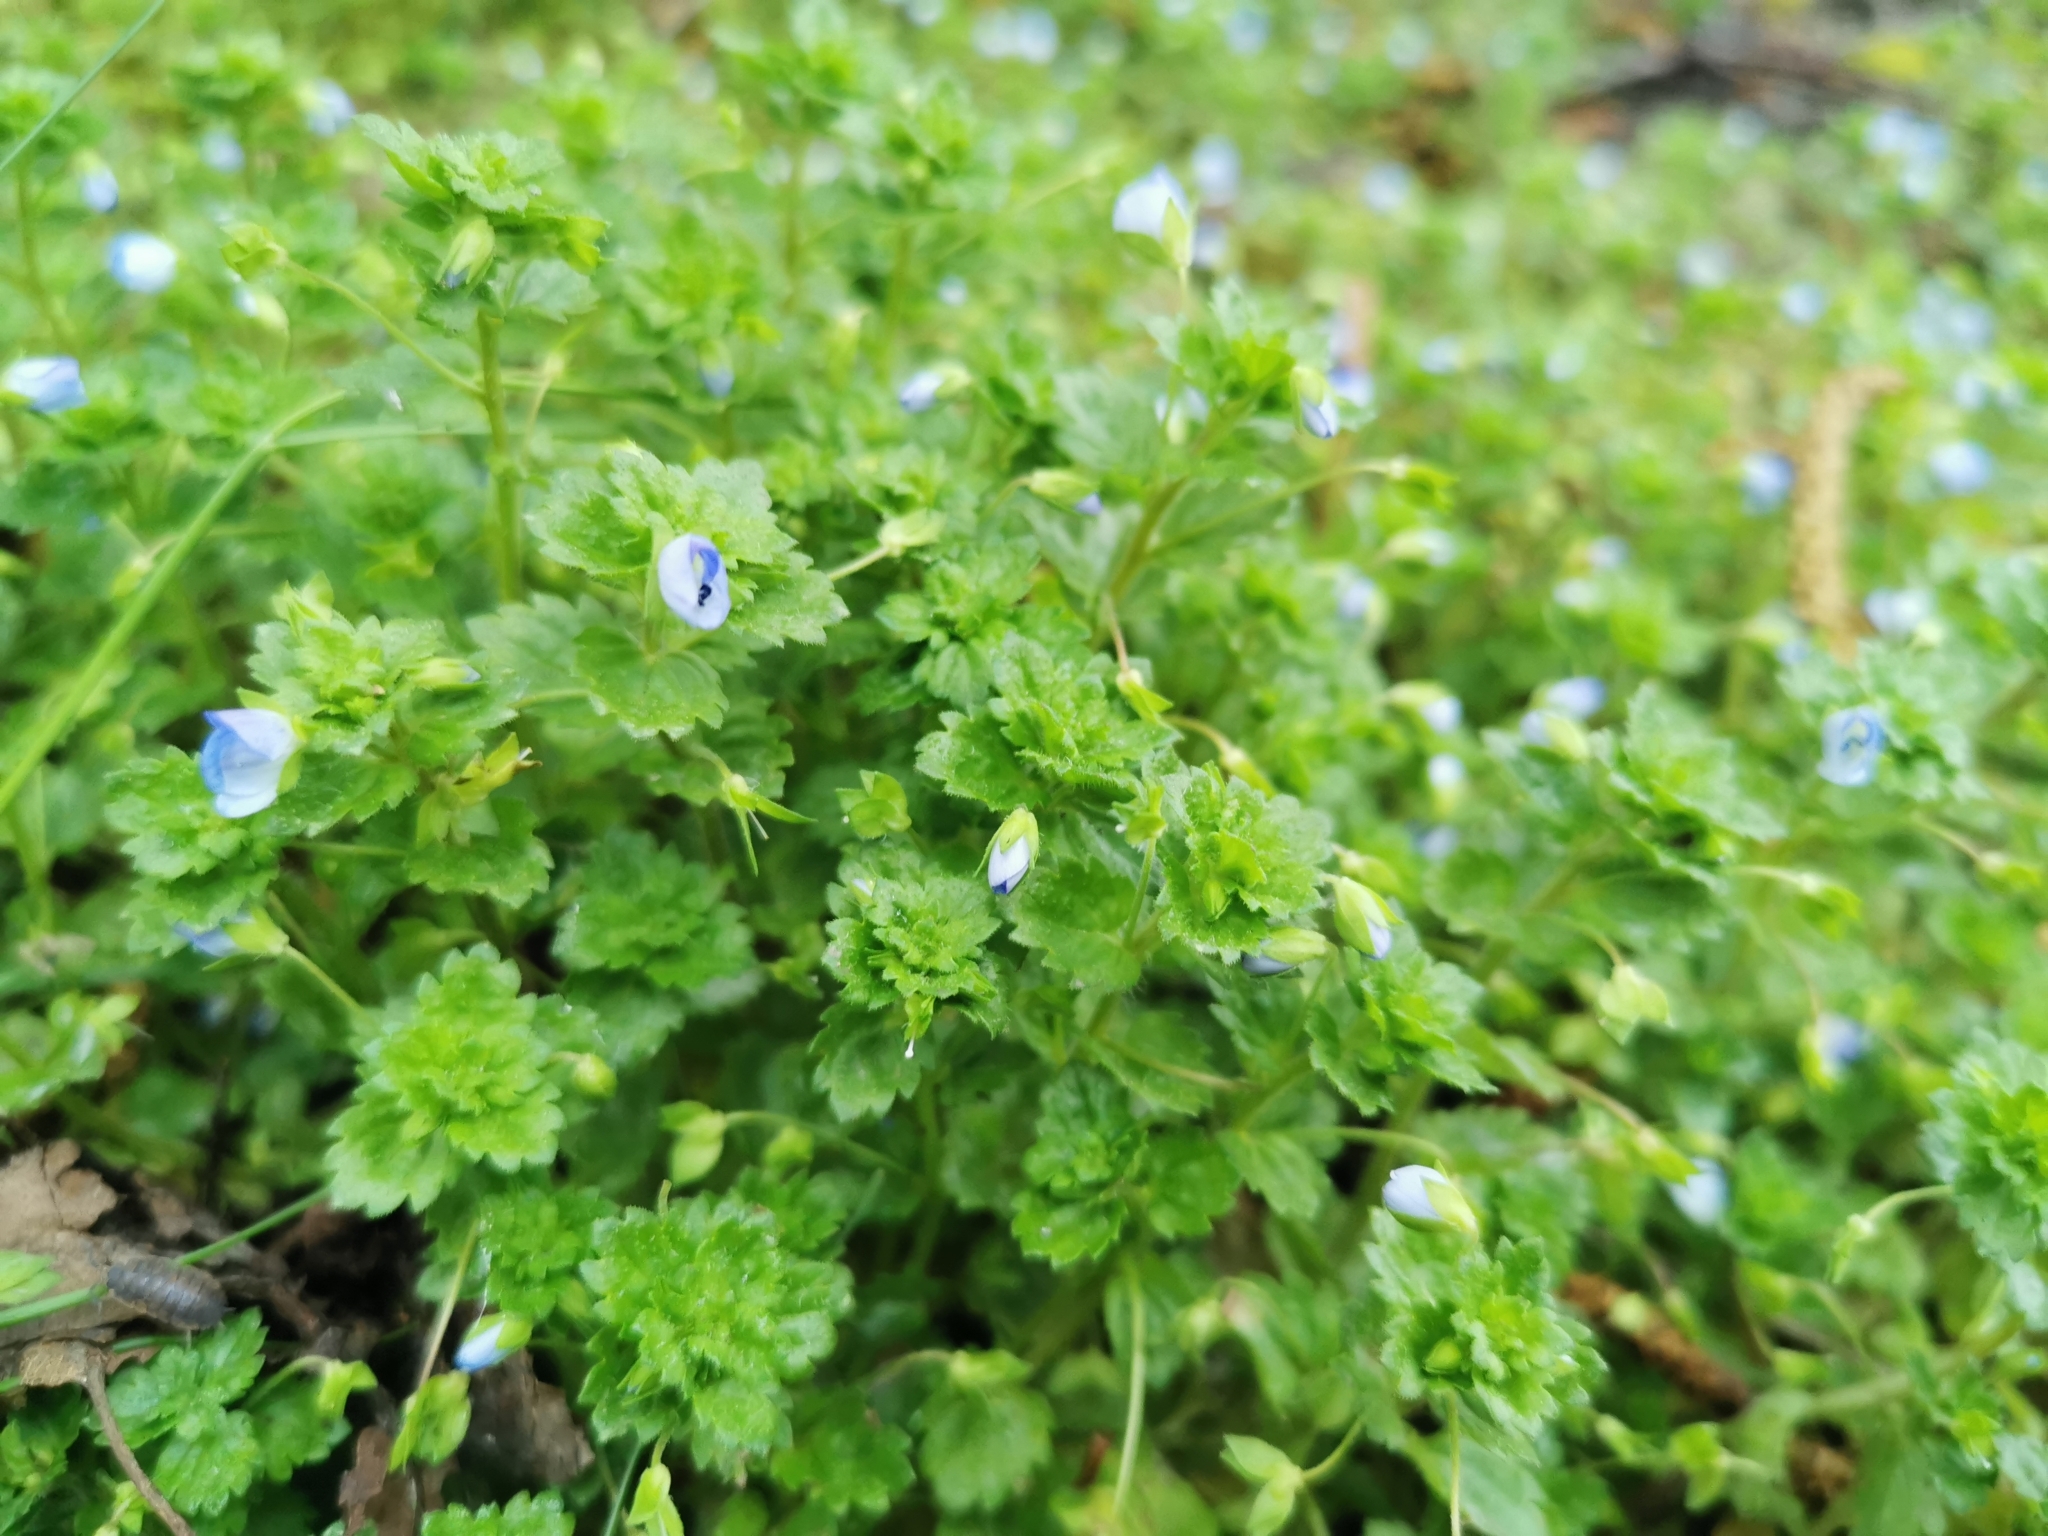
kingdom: Plantae
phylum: Tracheophyta
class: Magnoliopsida
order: Lamiales
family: Plantaginaceae
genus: Veronica
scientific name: Veronica persica
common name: Common field-speedwell
